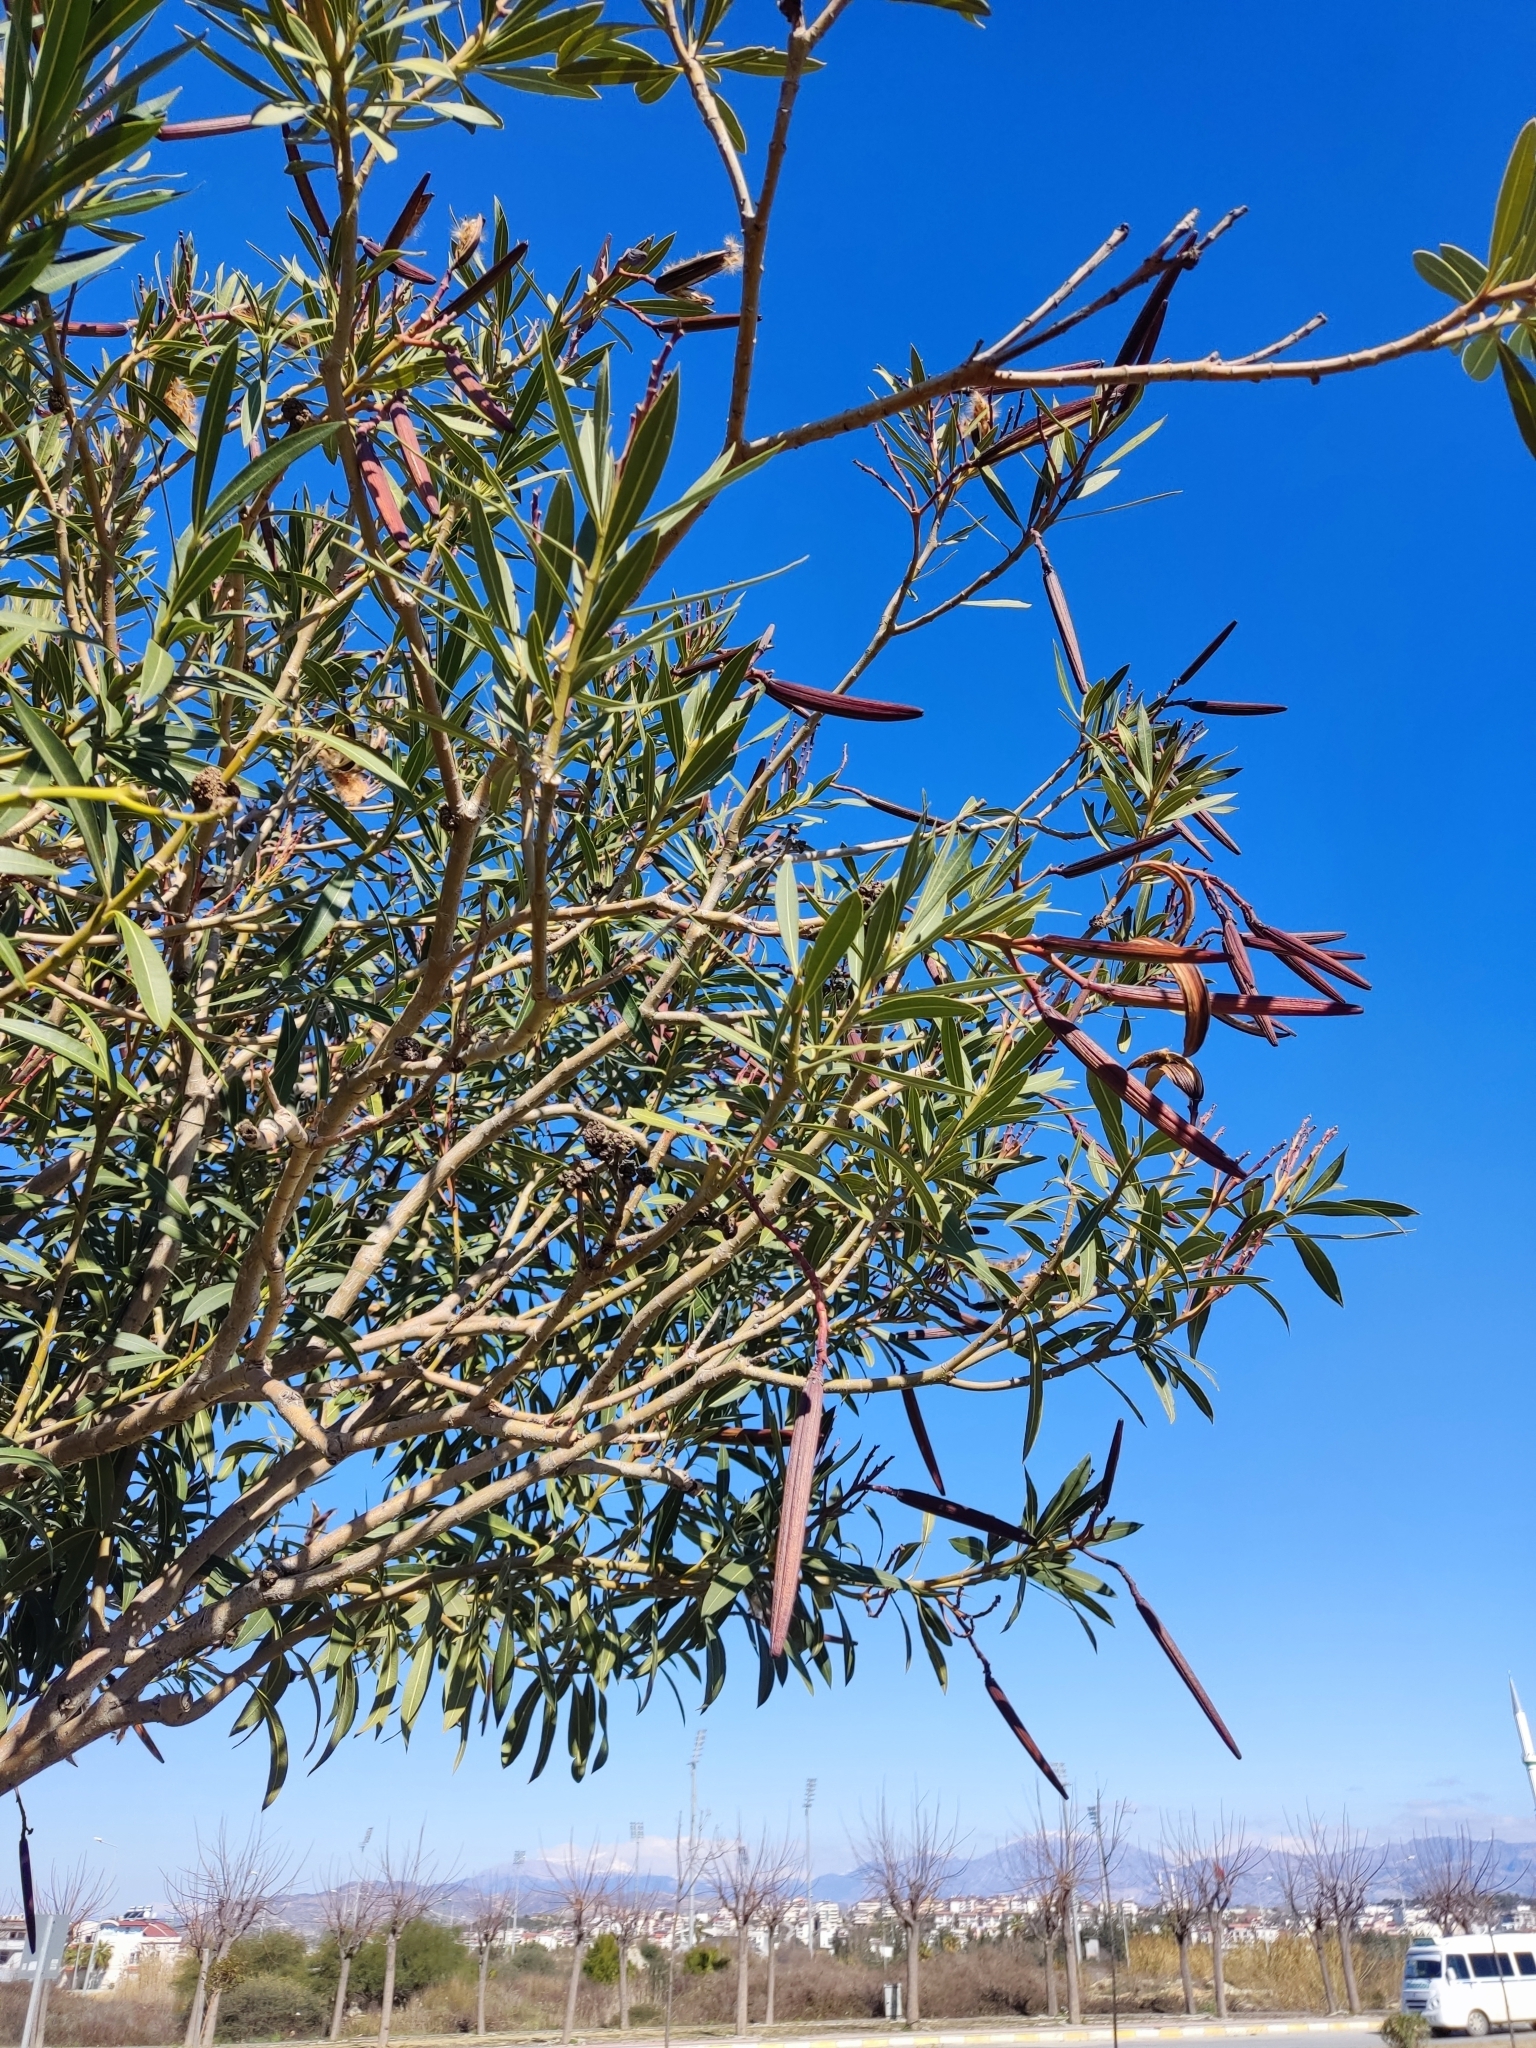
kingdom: Plantae
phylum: Tracheophyta
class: Magnoliopsida
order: Gentianales
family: Apocynaceae
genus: Nerium
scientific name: Nerium oleander
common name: Oleander
